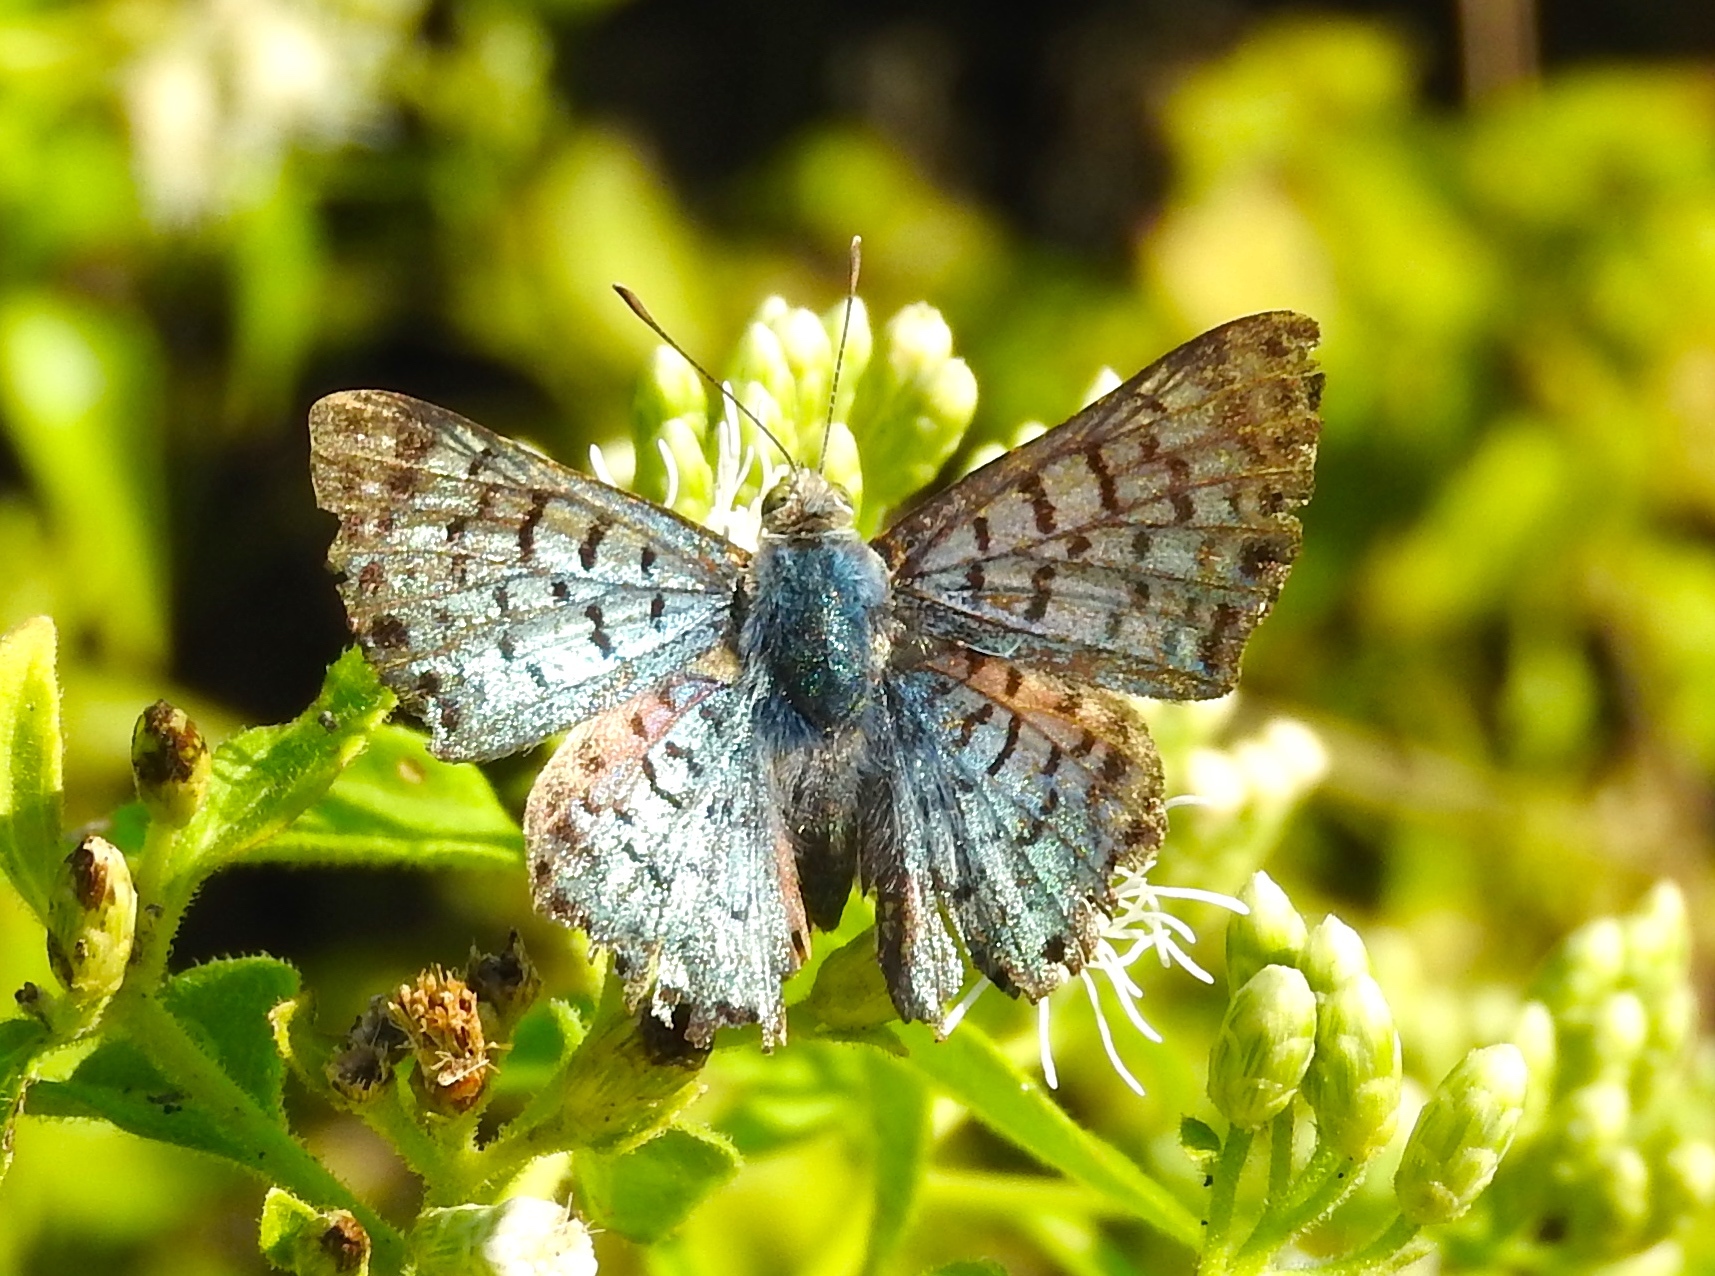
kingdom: Animalia
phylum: Arthropoda
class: Insecta
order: Lepidoptera
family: Riodinidae
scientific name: Riodinidae
